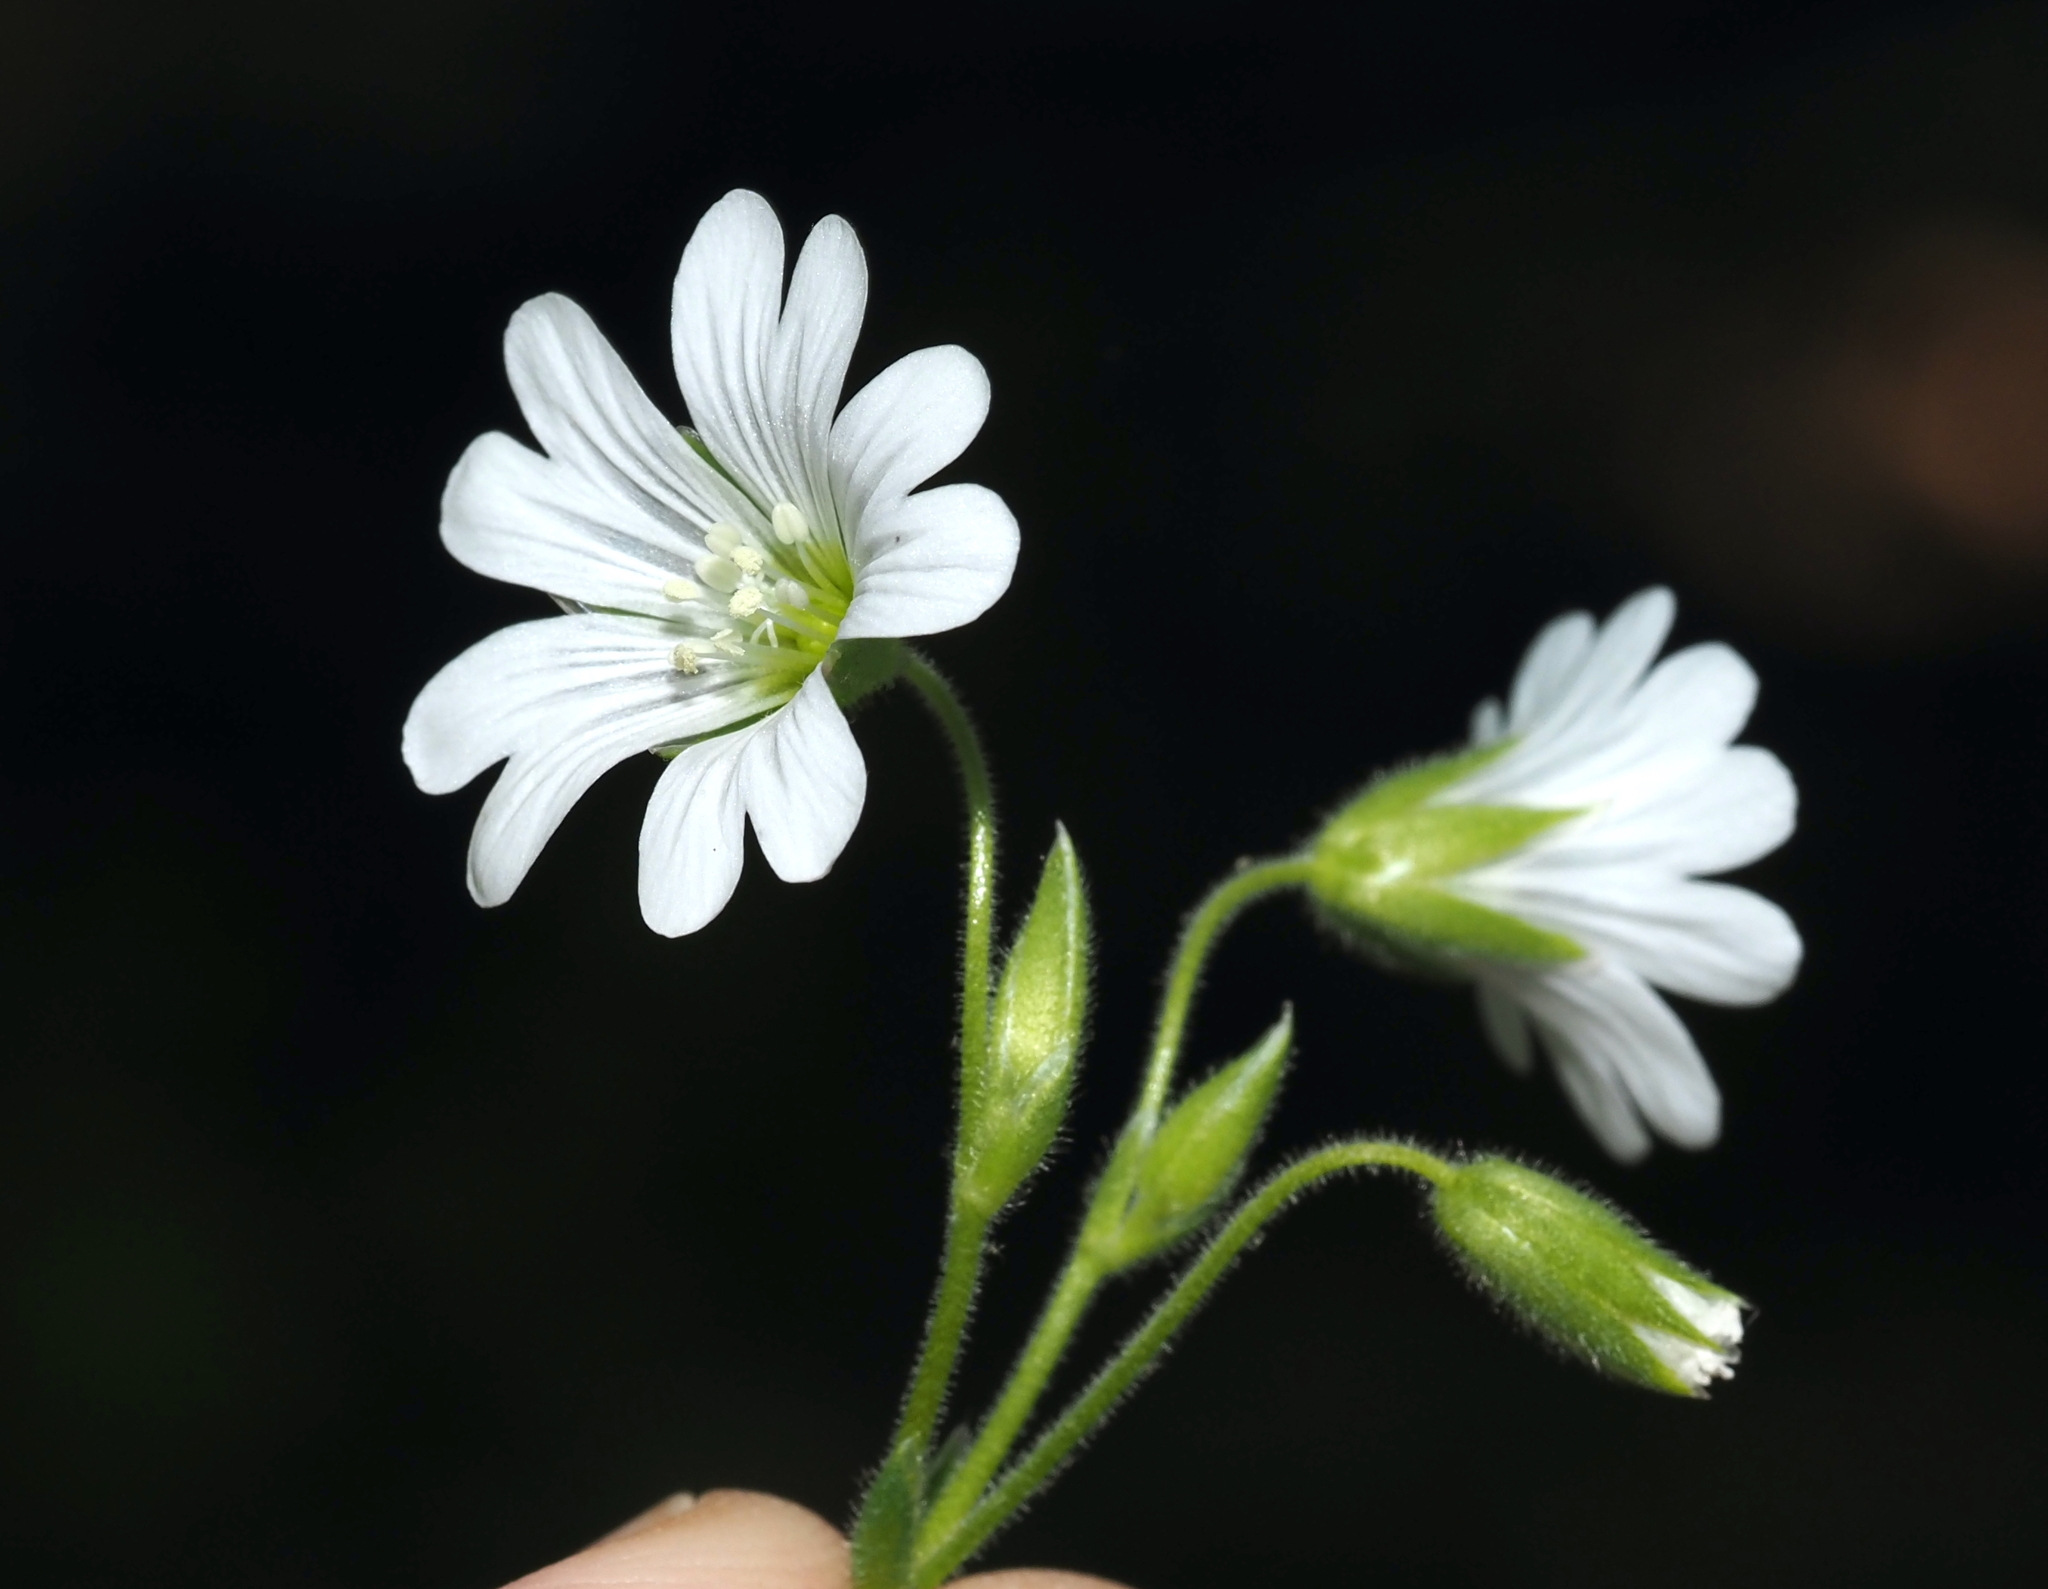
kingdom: Plantae
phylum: Tracheophyta
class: Magnoliopsida
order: Caryophyllales
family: Caryophyllaceae
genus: Cerastium
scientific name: Cerastium velutinum
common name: Barren chickweed
